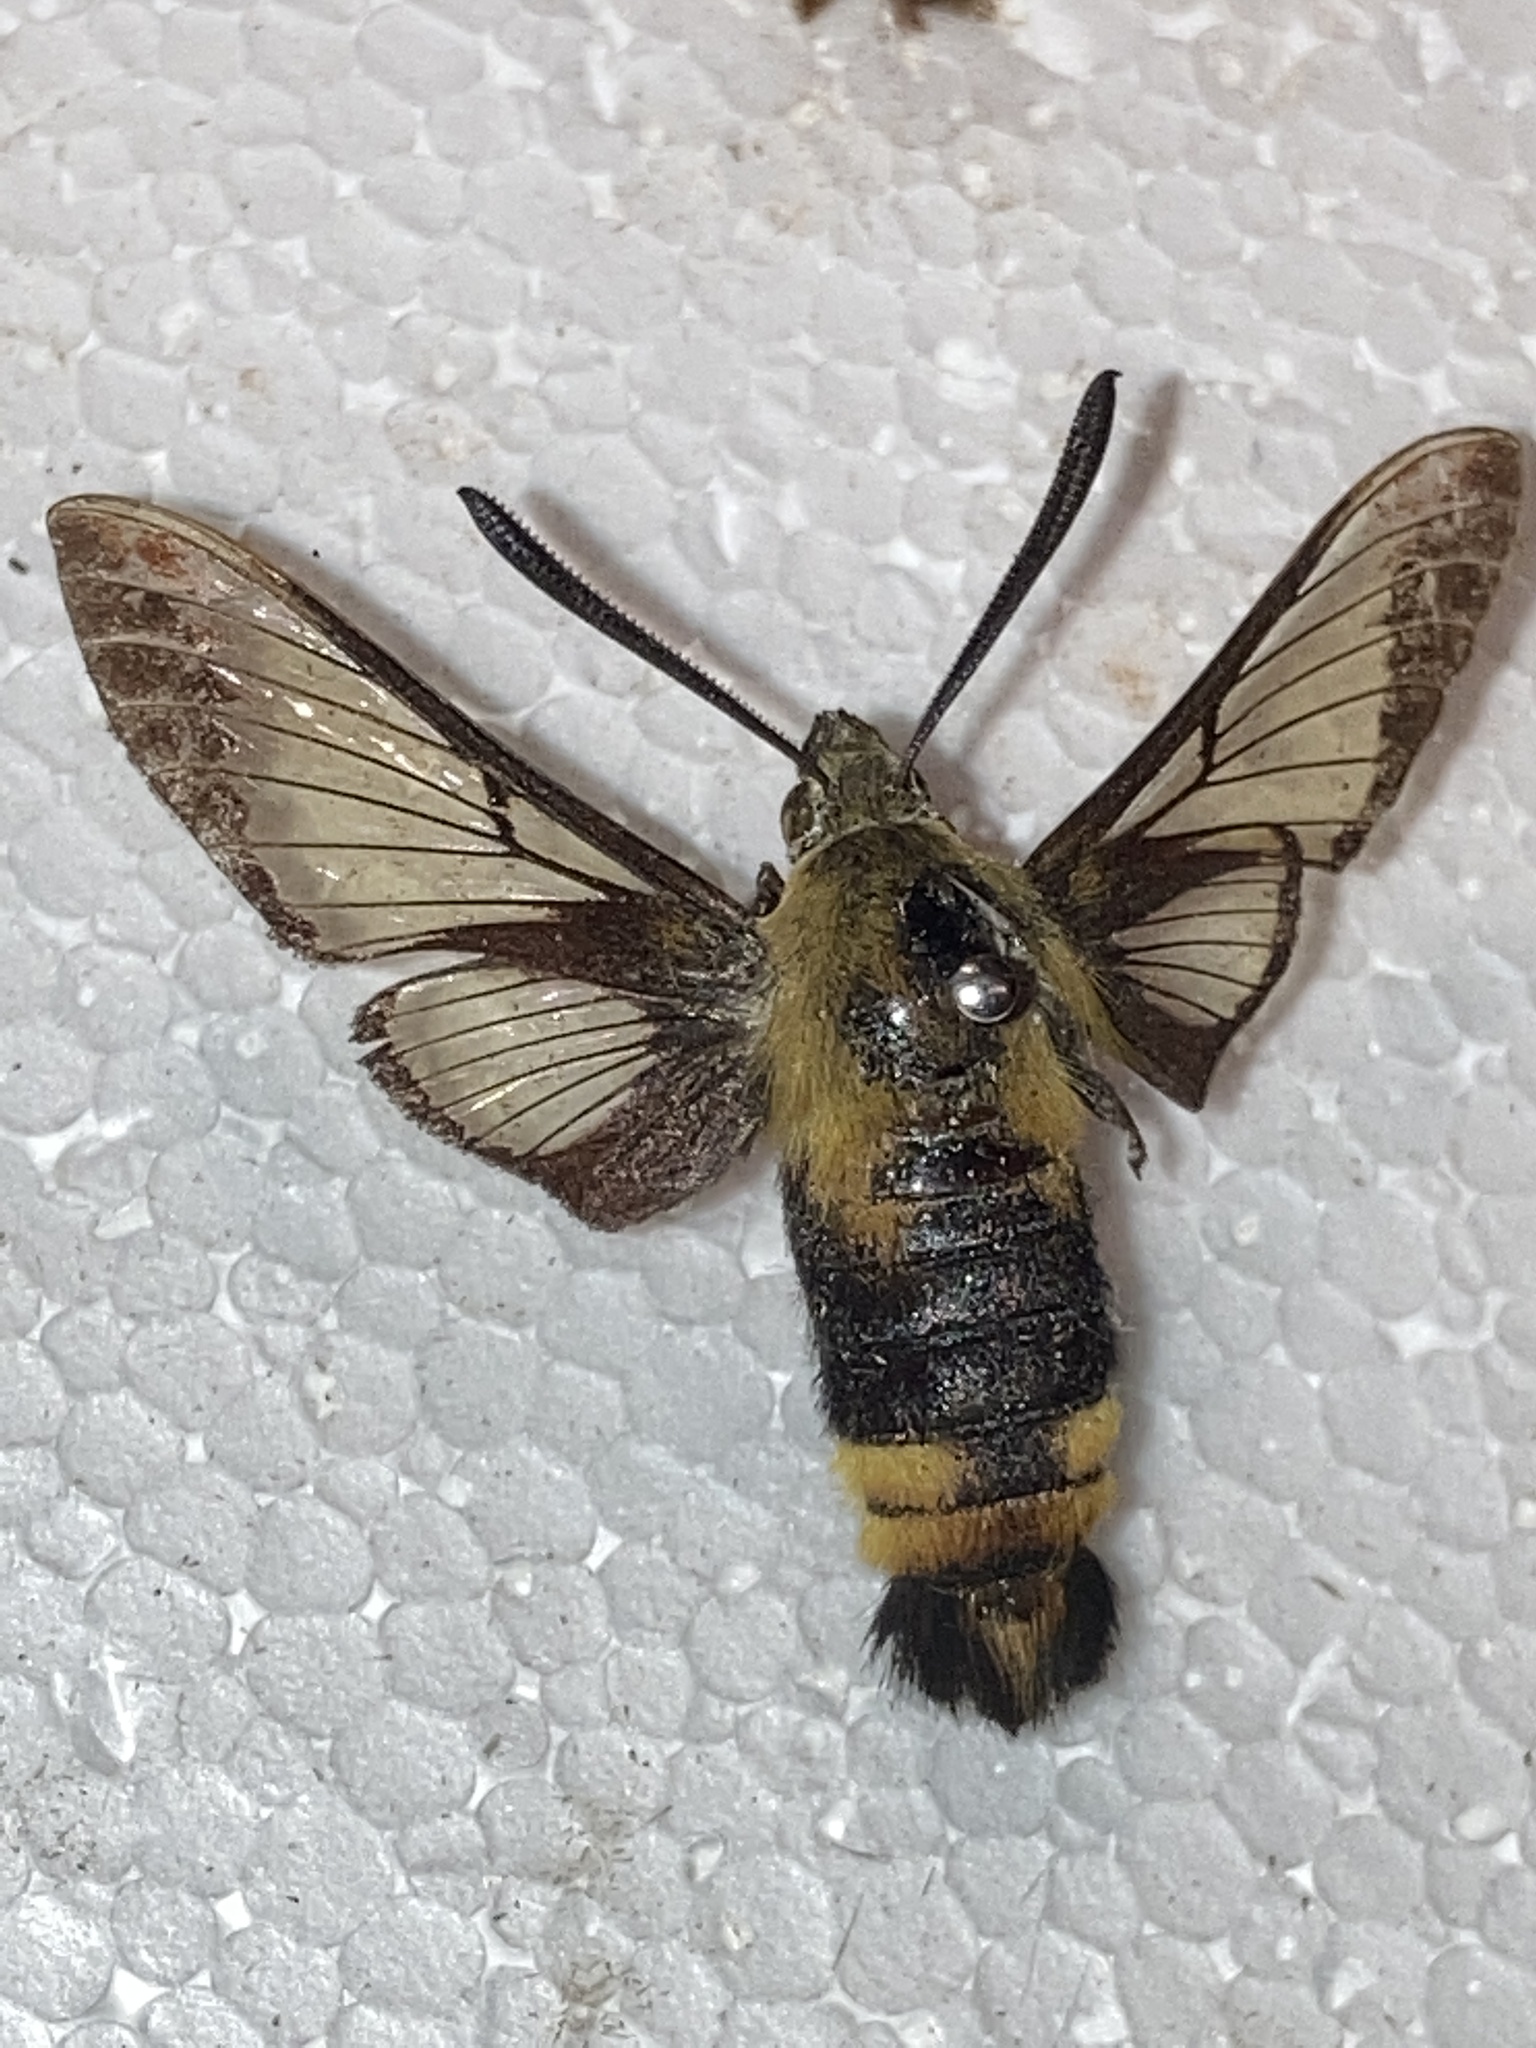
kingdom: Animalia
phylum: Arthropoda
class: Insecta
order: Lepidoptera
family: Sphingidae
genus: Hemaris
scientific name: Hemaris diffinis
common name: Bumblebee moth
